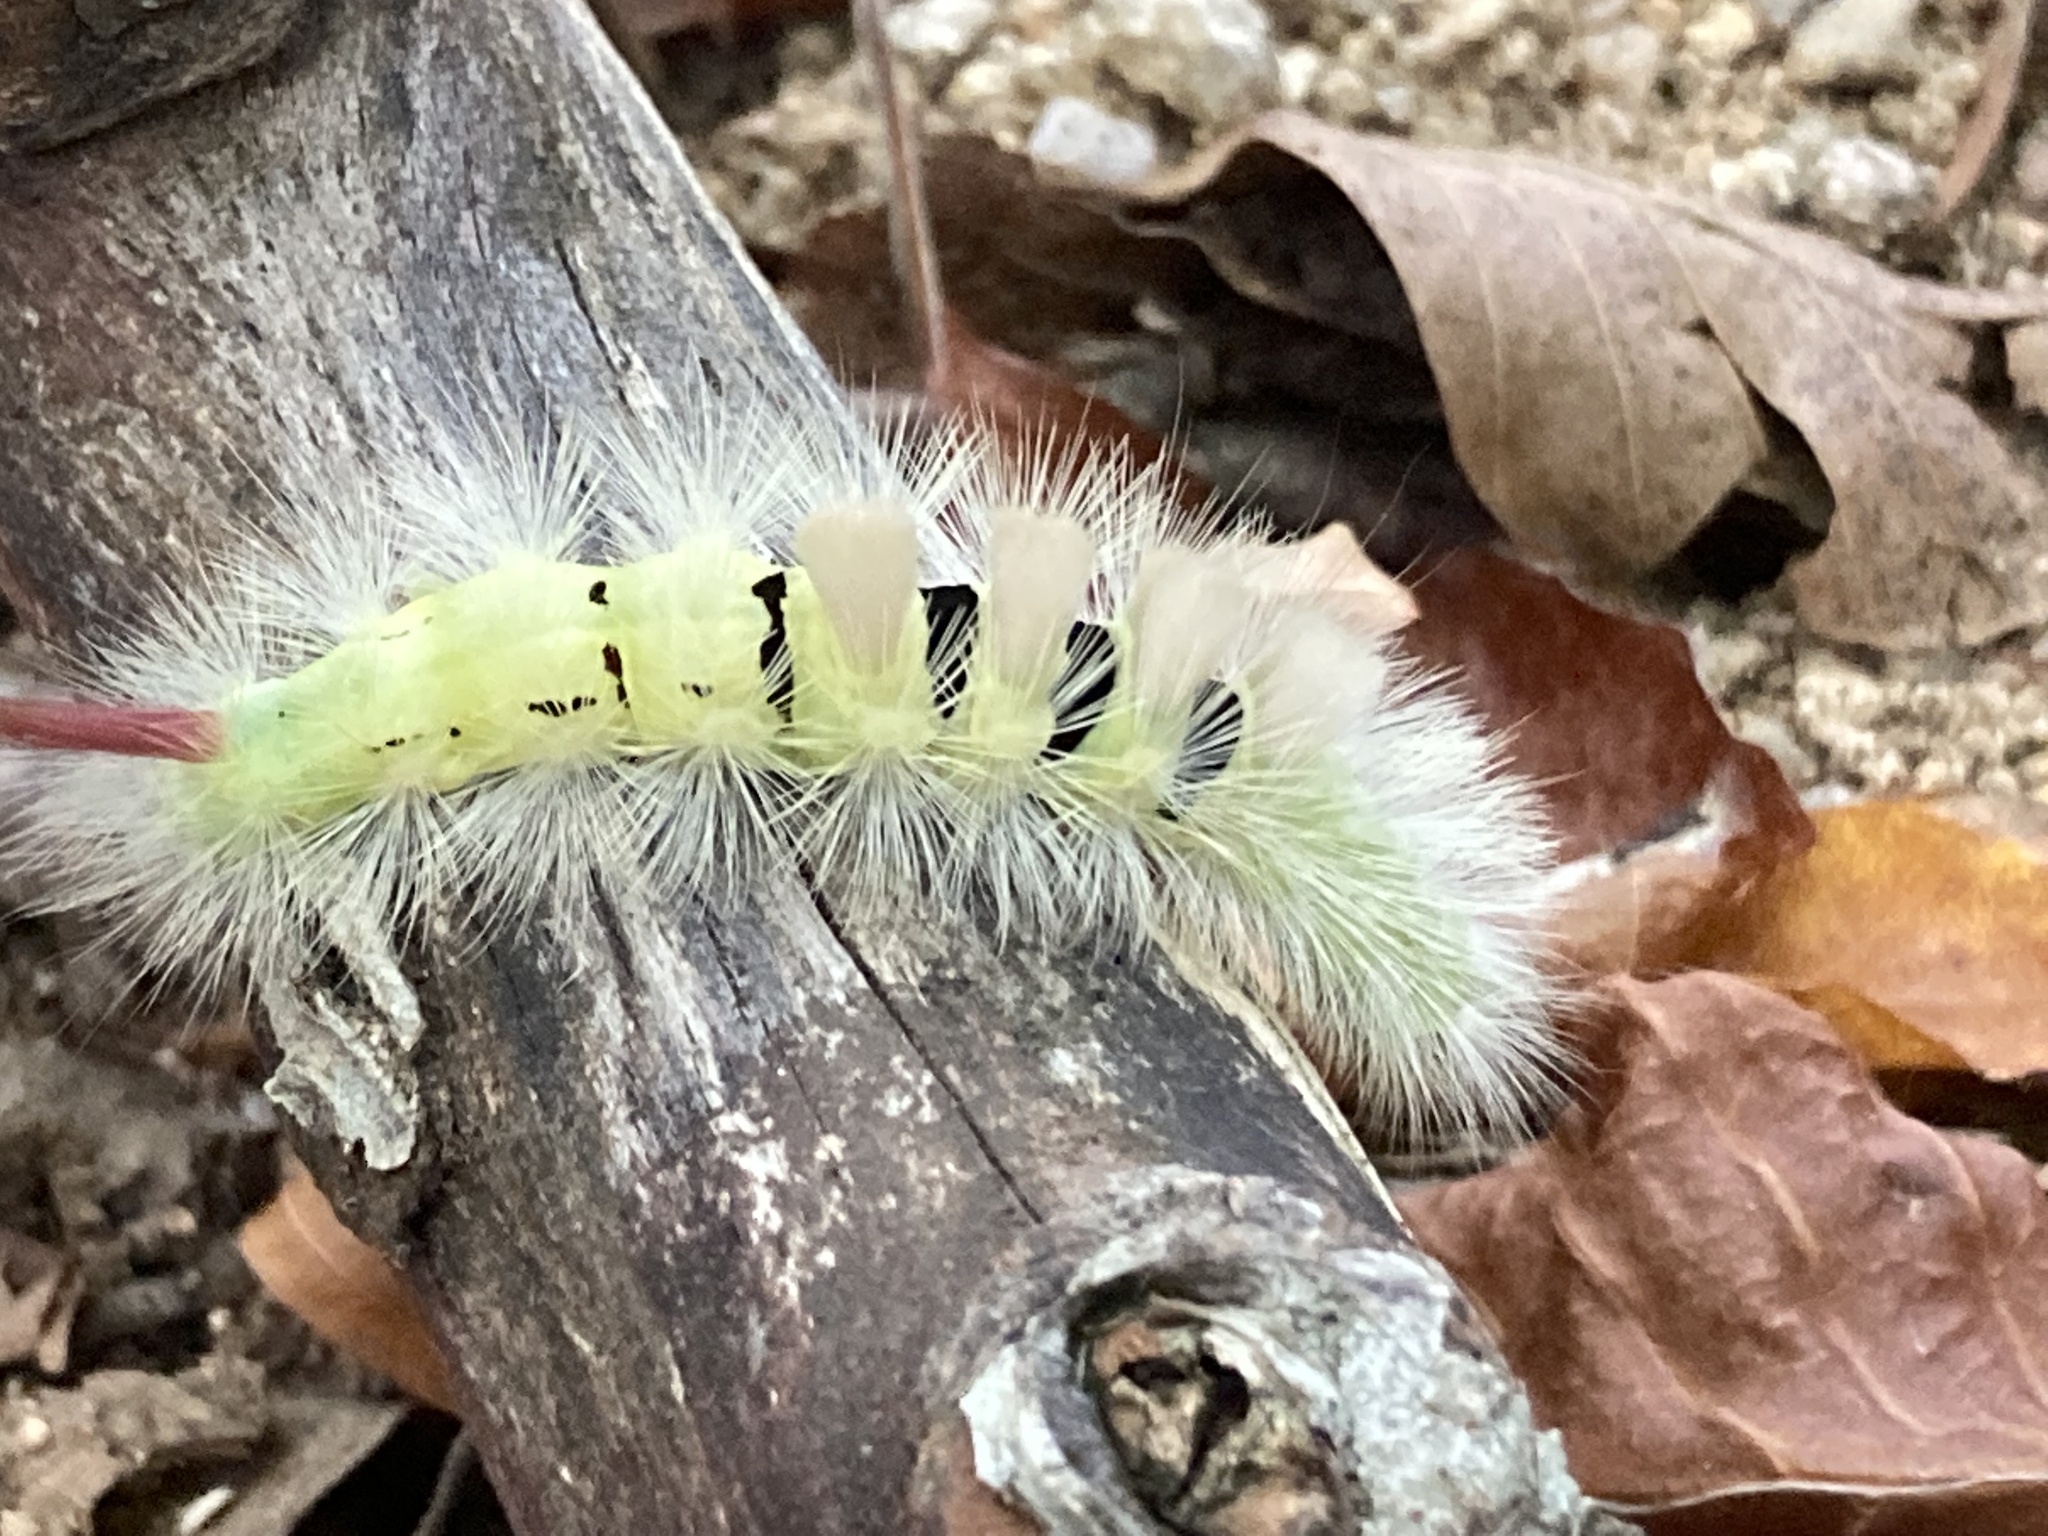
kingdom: Animalia
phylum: Arthropoda
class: Insecta
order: Lepidoptera
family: Erebidae
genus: Calliteara
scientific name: Calliteara pudibunda
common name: Pale tussock
